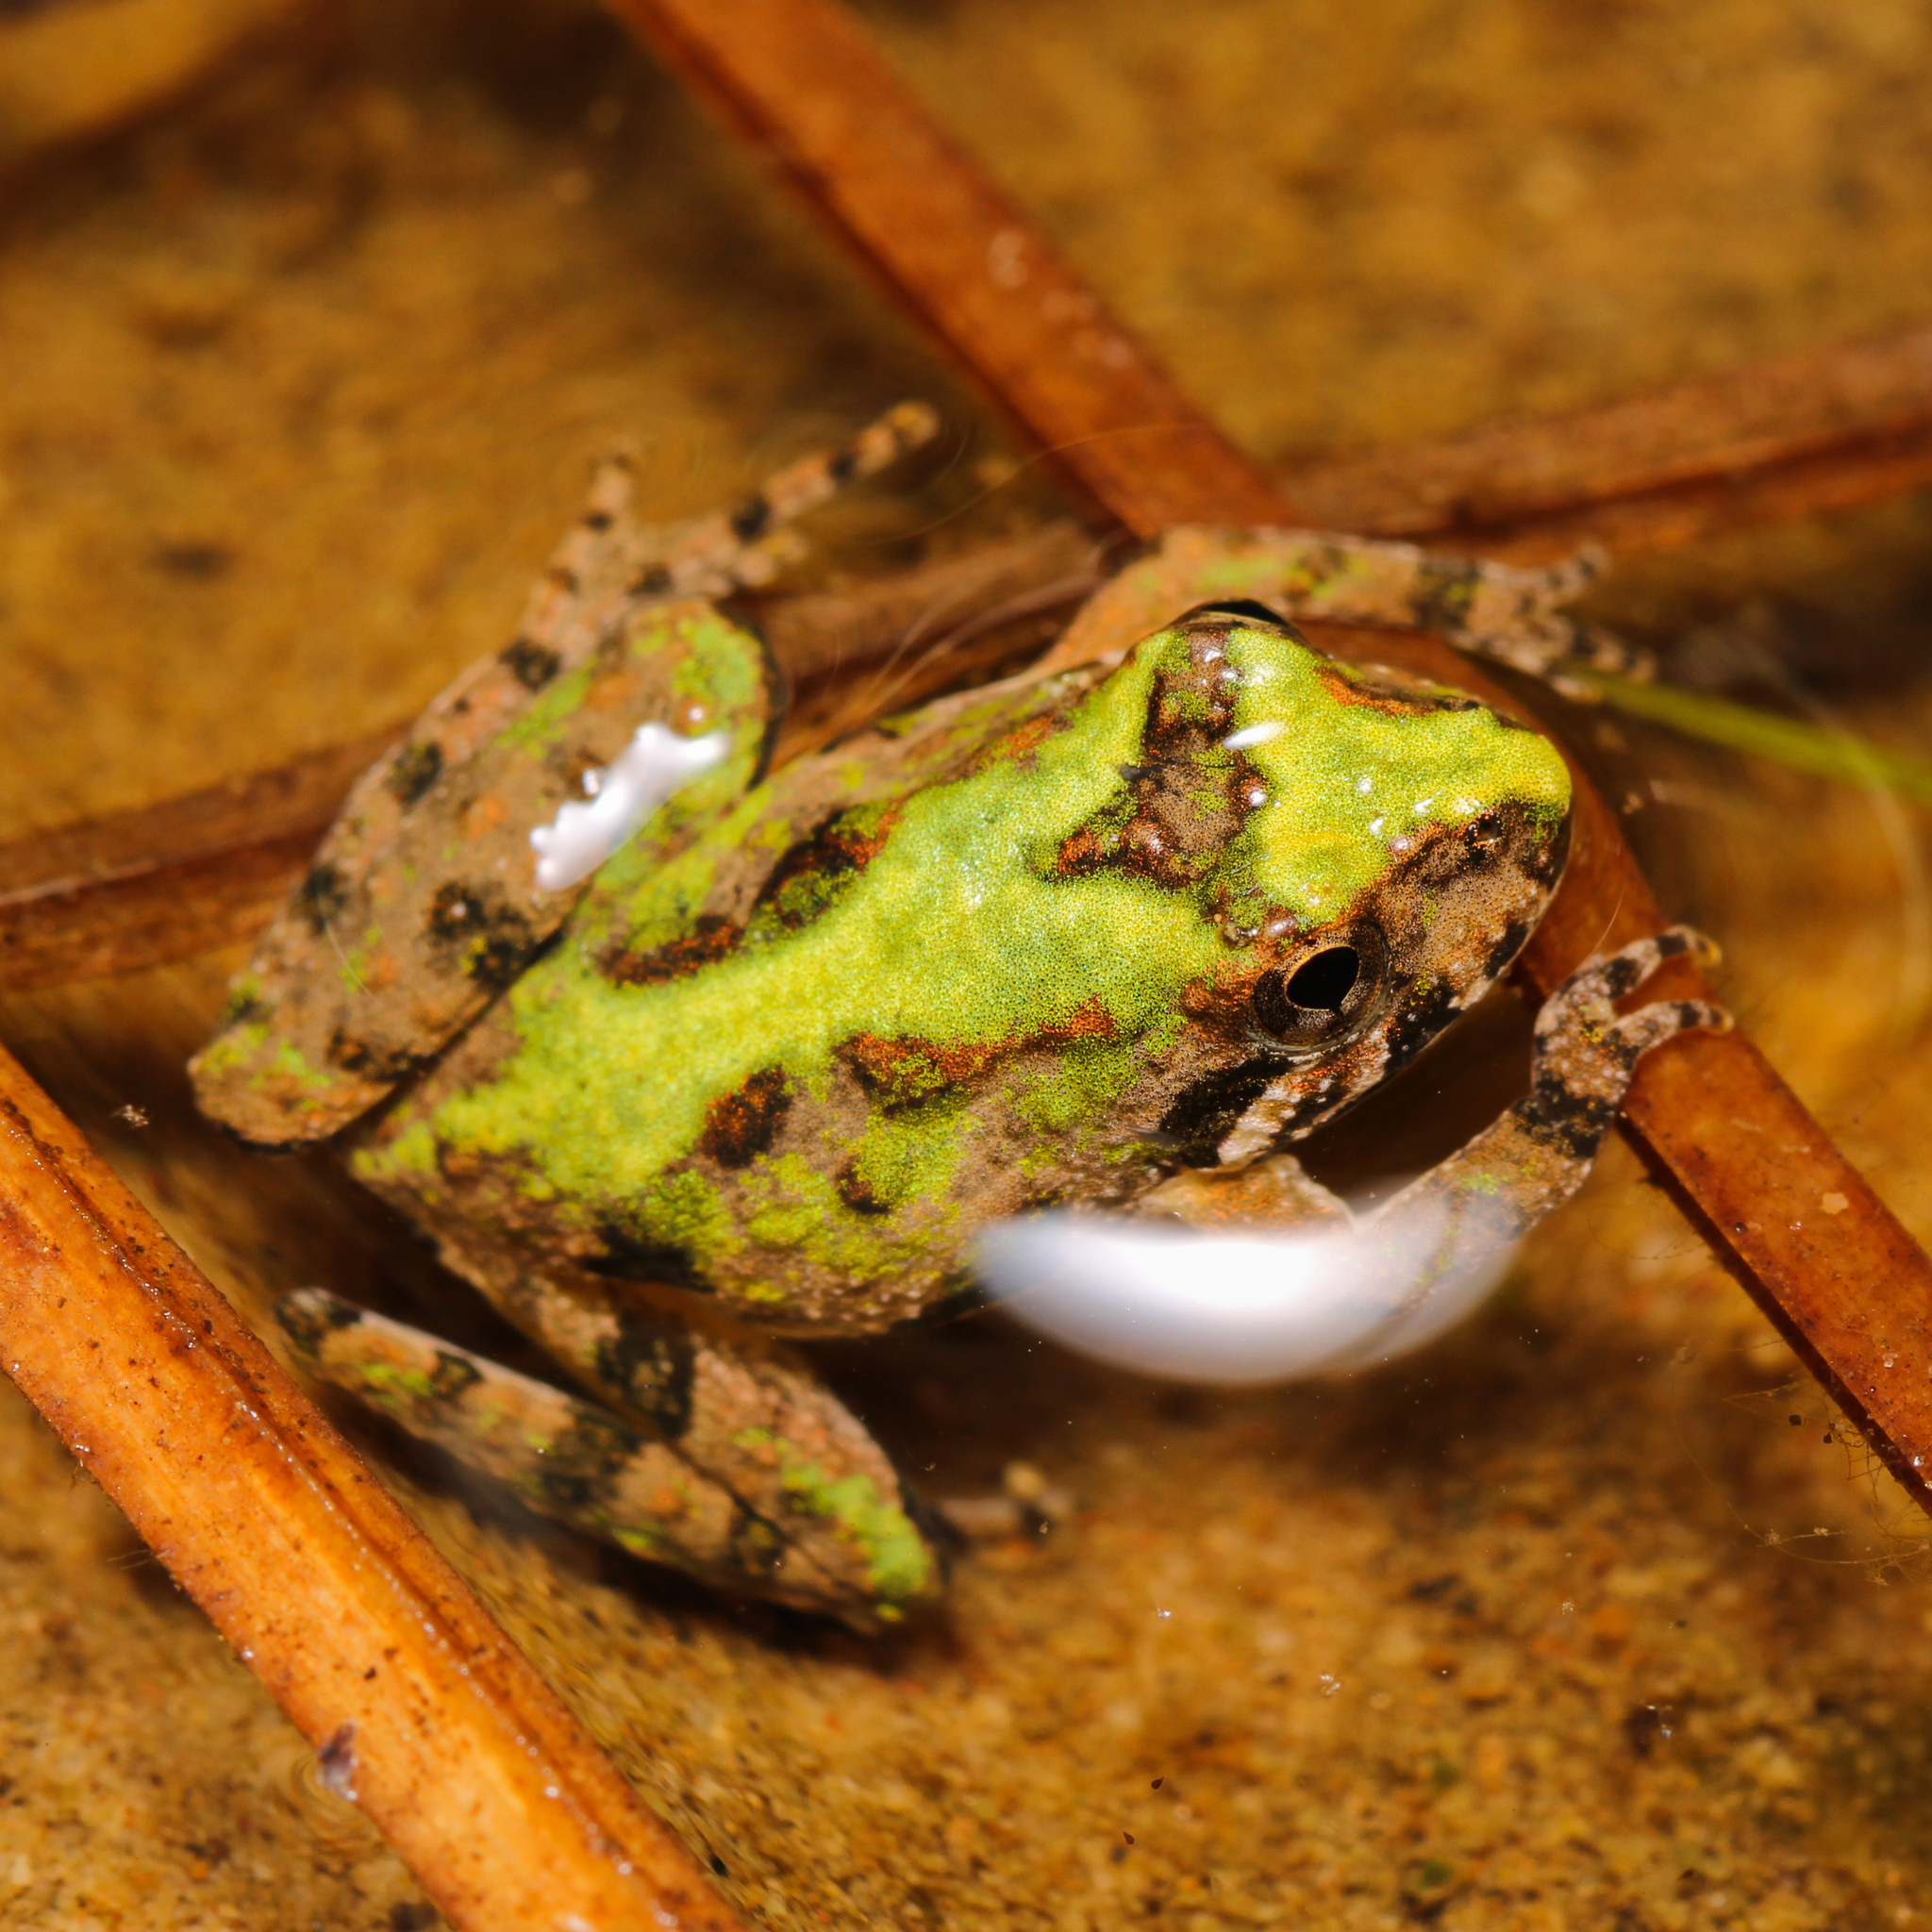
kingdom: Animalia
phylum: Chordata
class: Amphibia
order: Anura
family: Hylidae
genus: Acris
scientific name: Acris crepitans
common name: Northern cricket frog
